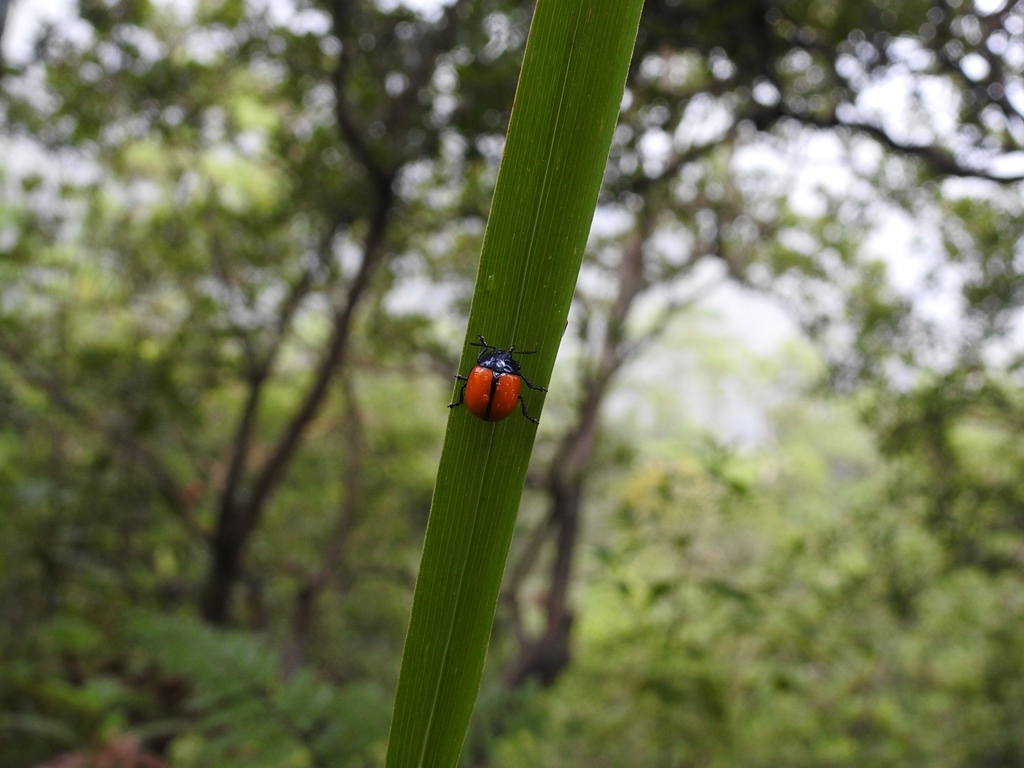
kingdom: Animalia
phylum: Arthropoda
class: Insecta
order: Coleoptera
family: Chrysomelidae
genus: Labidomera
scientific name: Labidomera
